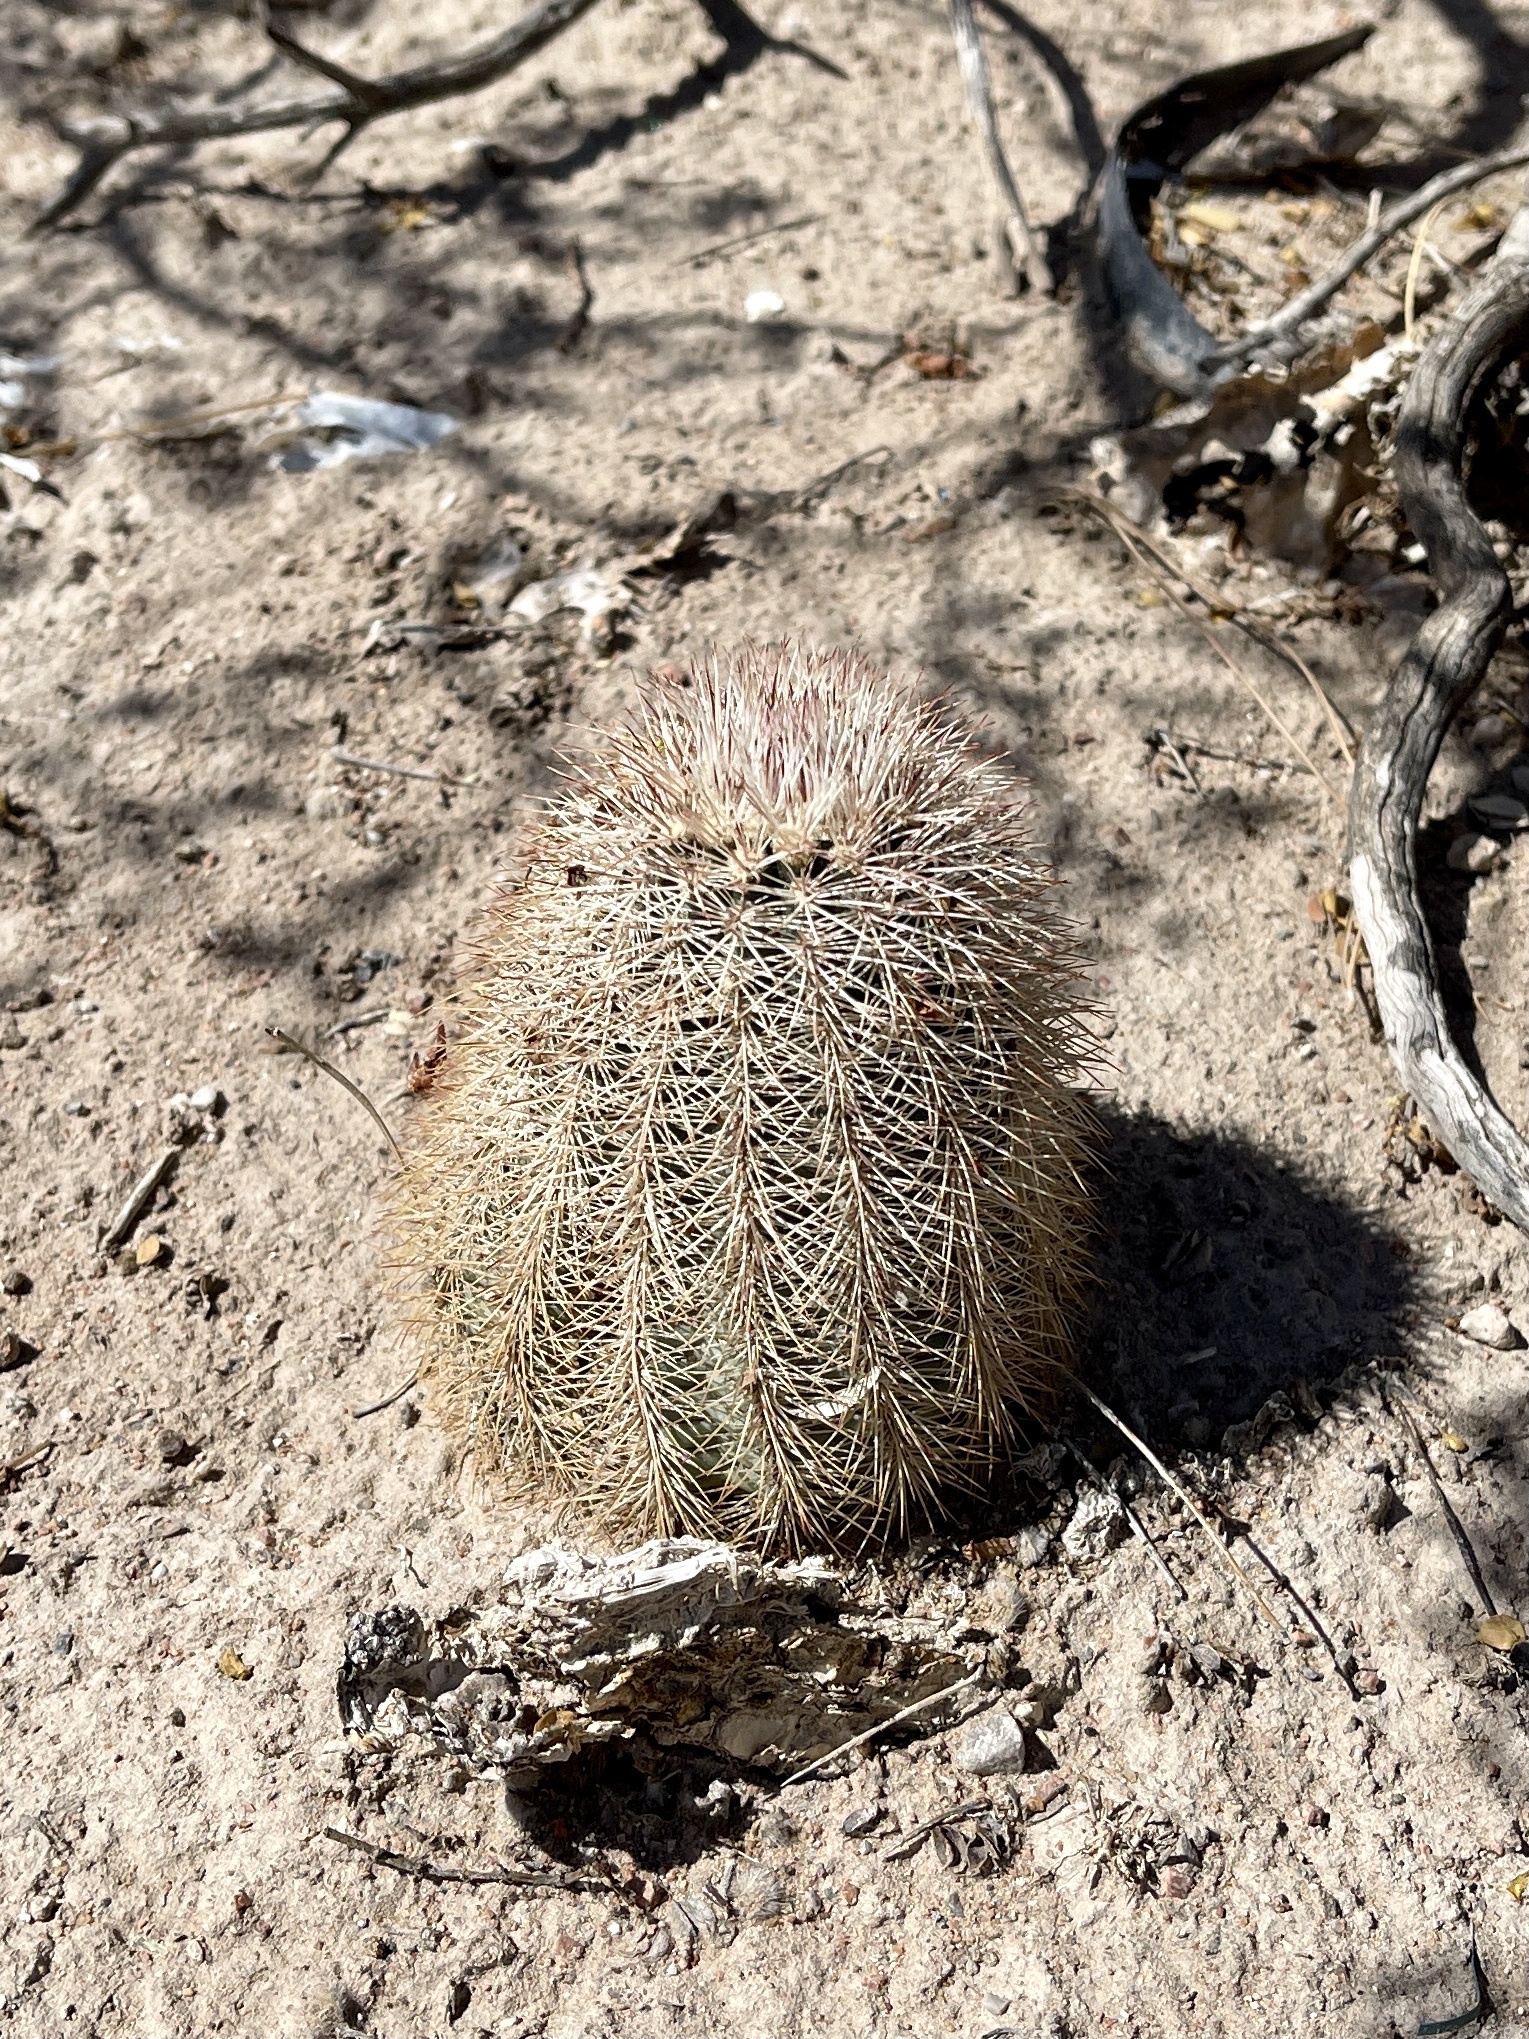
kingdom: Plantae
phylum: Tracheophyta
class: Magnoliopsida
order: Caryophyllales
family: Cactaceae
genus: Echinocereus
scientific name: Echinocereus dasyacanthus
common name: Spiny hedgehog cactus
